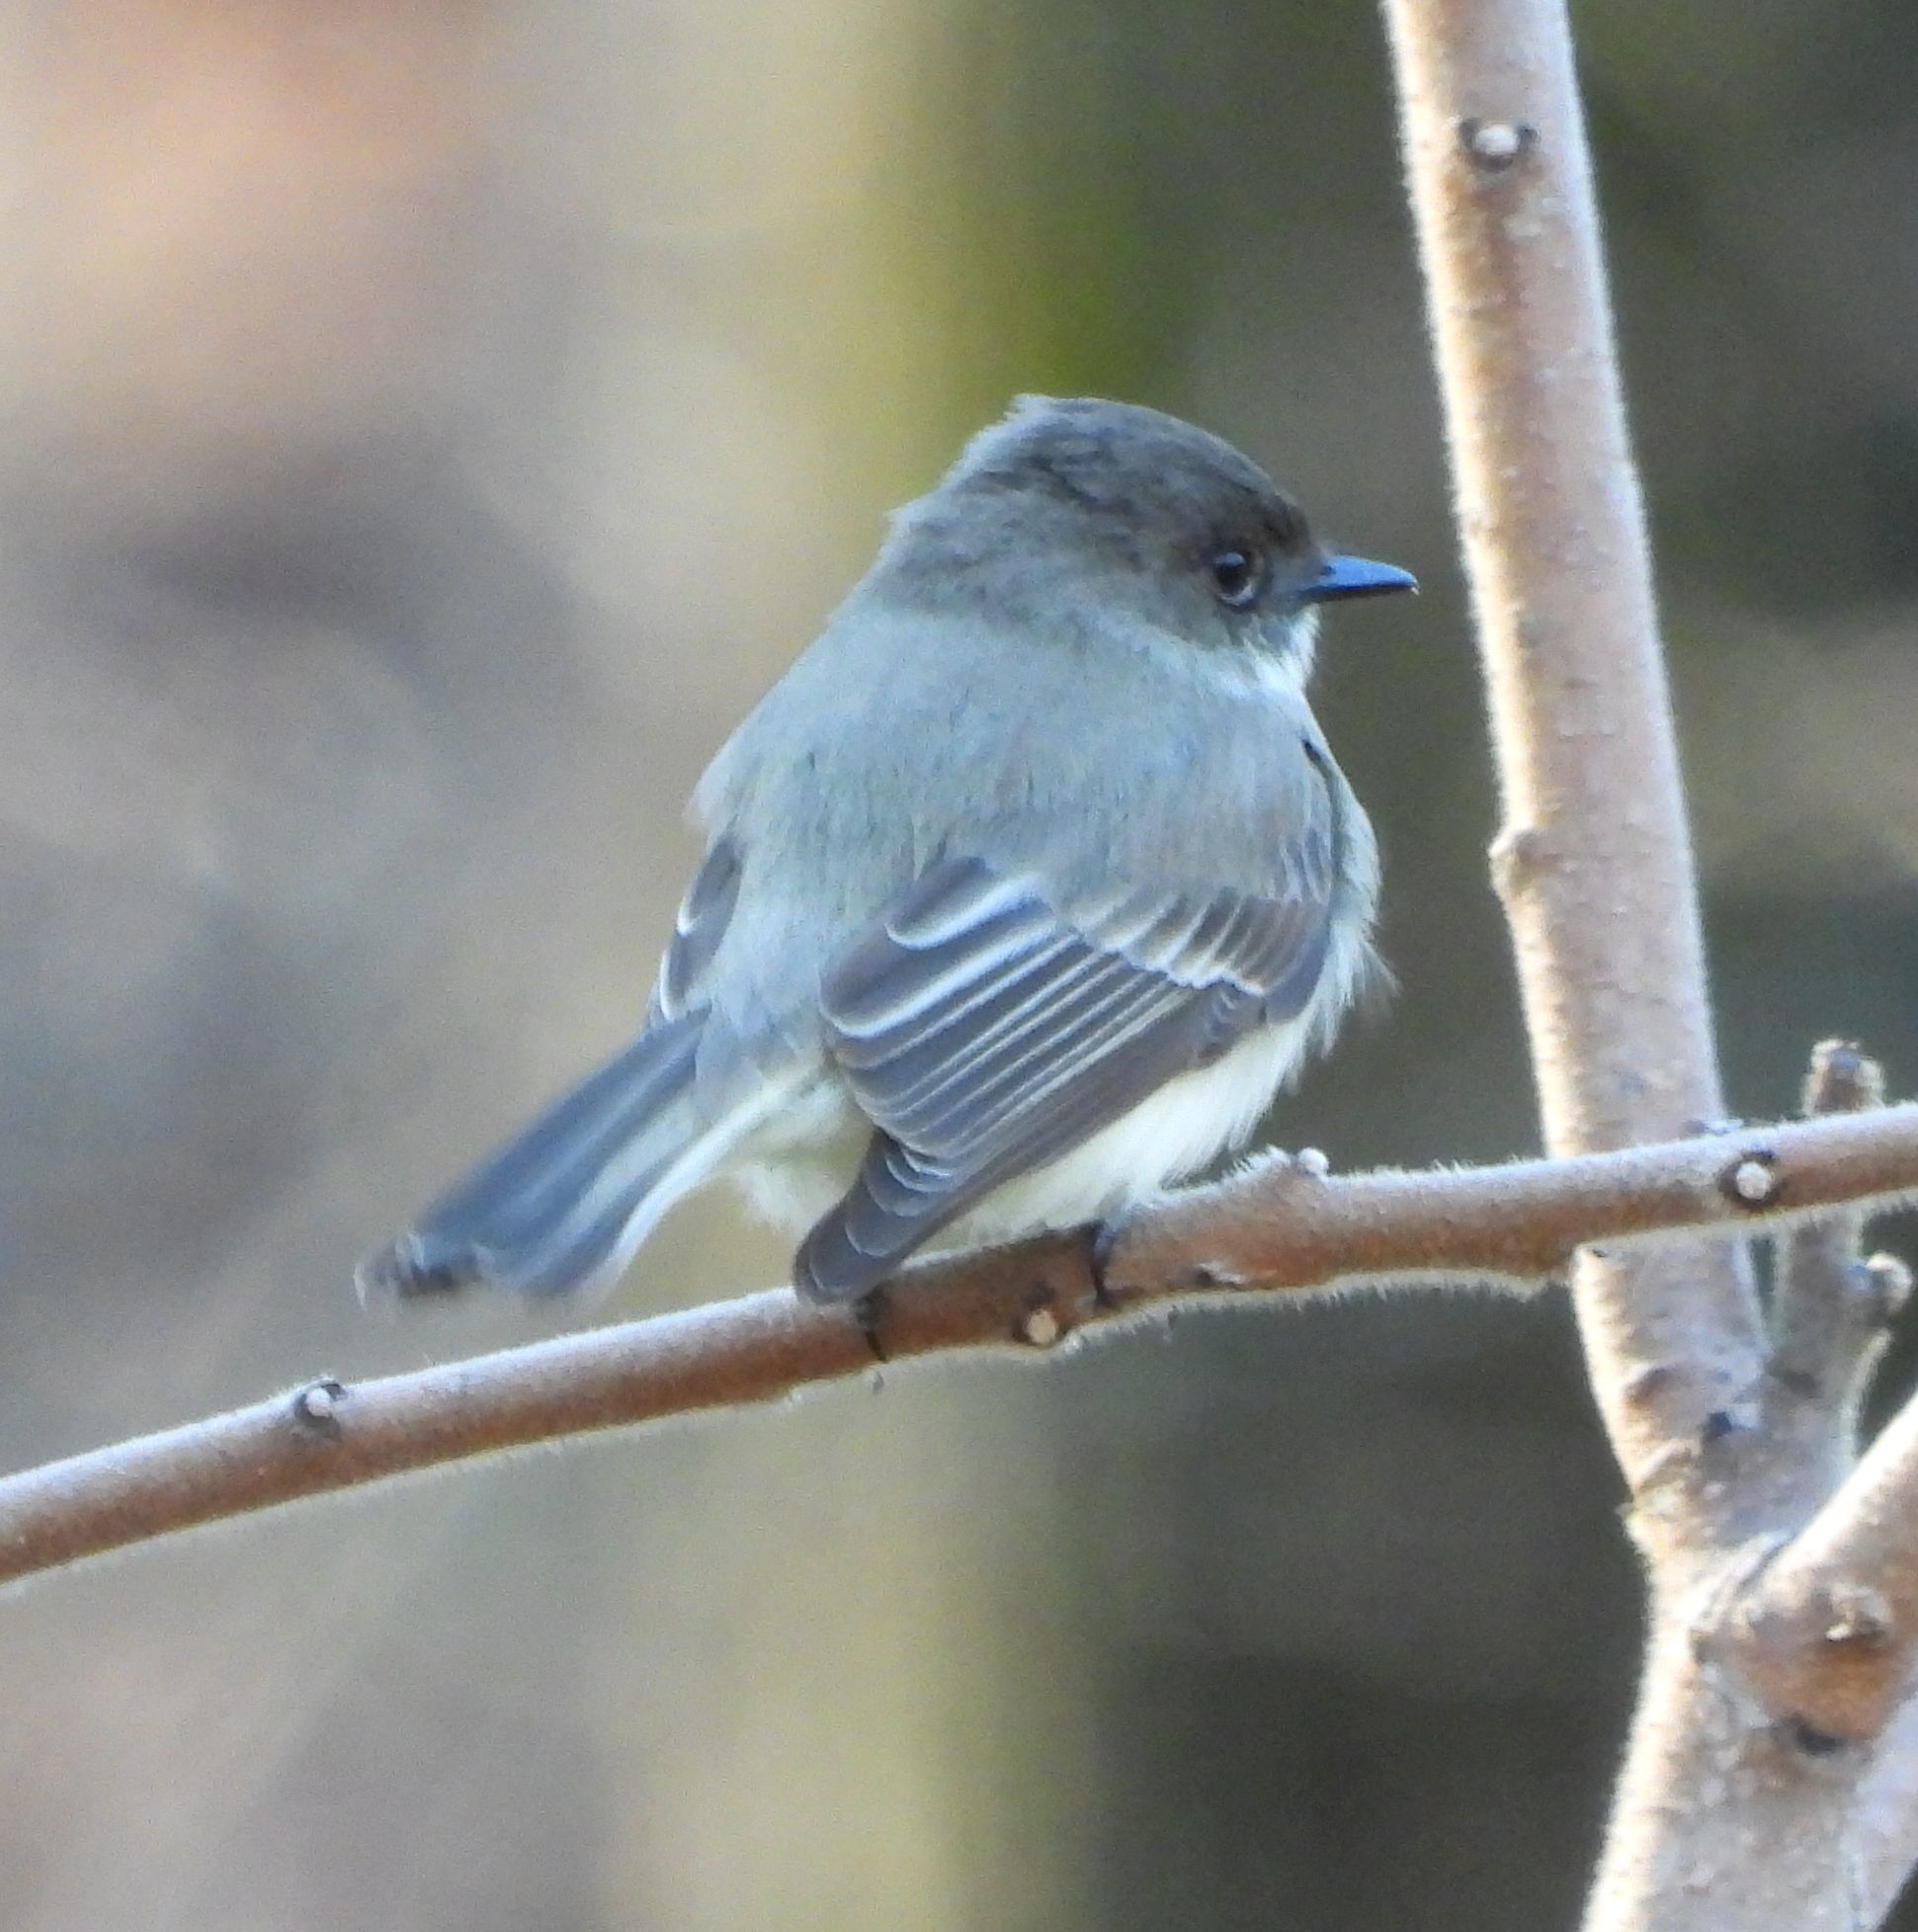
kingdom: Animalia
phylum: Chordata
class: Aves
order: Passeriformes
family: Tyrannidae
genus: Sayornis
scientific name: Sayornis phoebe
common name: Eastern phoebe
